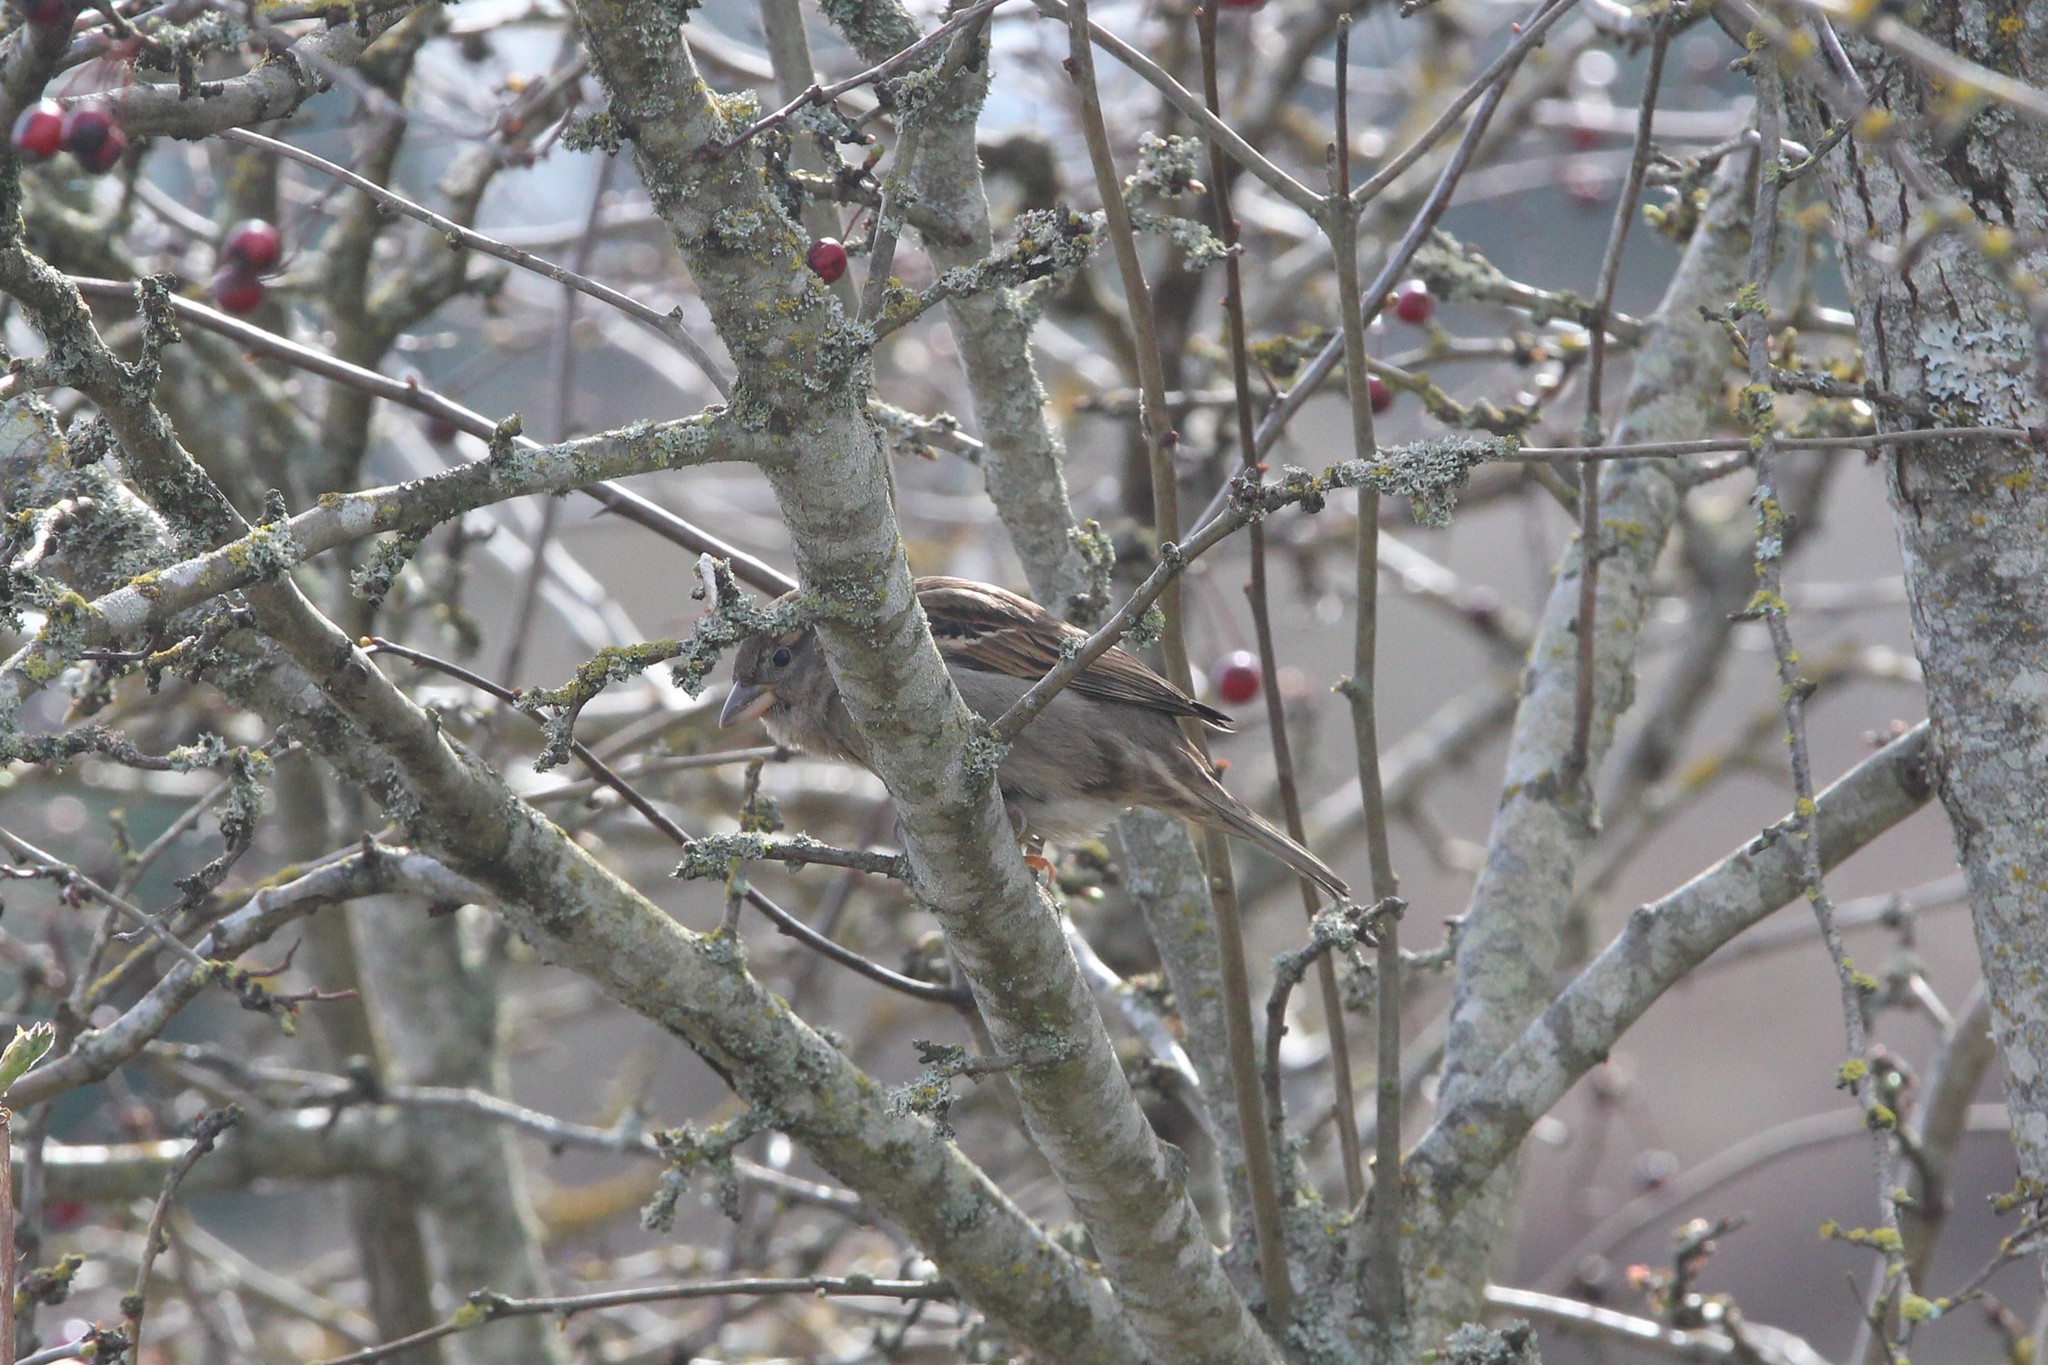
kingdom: Animalia
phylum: Chordata
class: Aves
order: Passeriformes
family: Passeridae
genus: Passer
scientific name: Passer domesticus
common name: House sparrow
